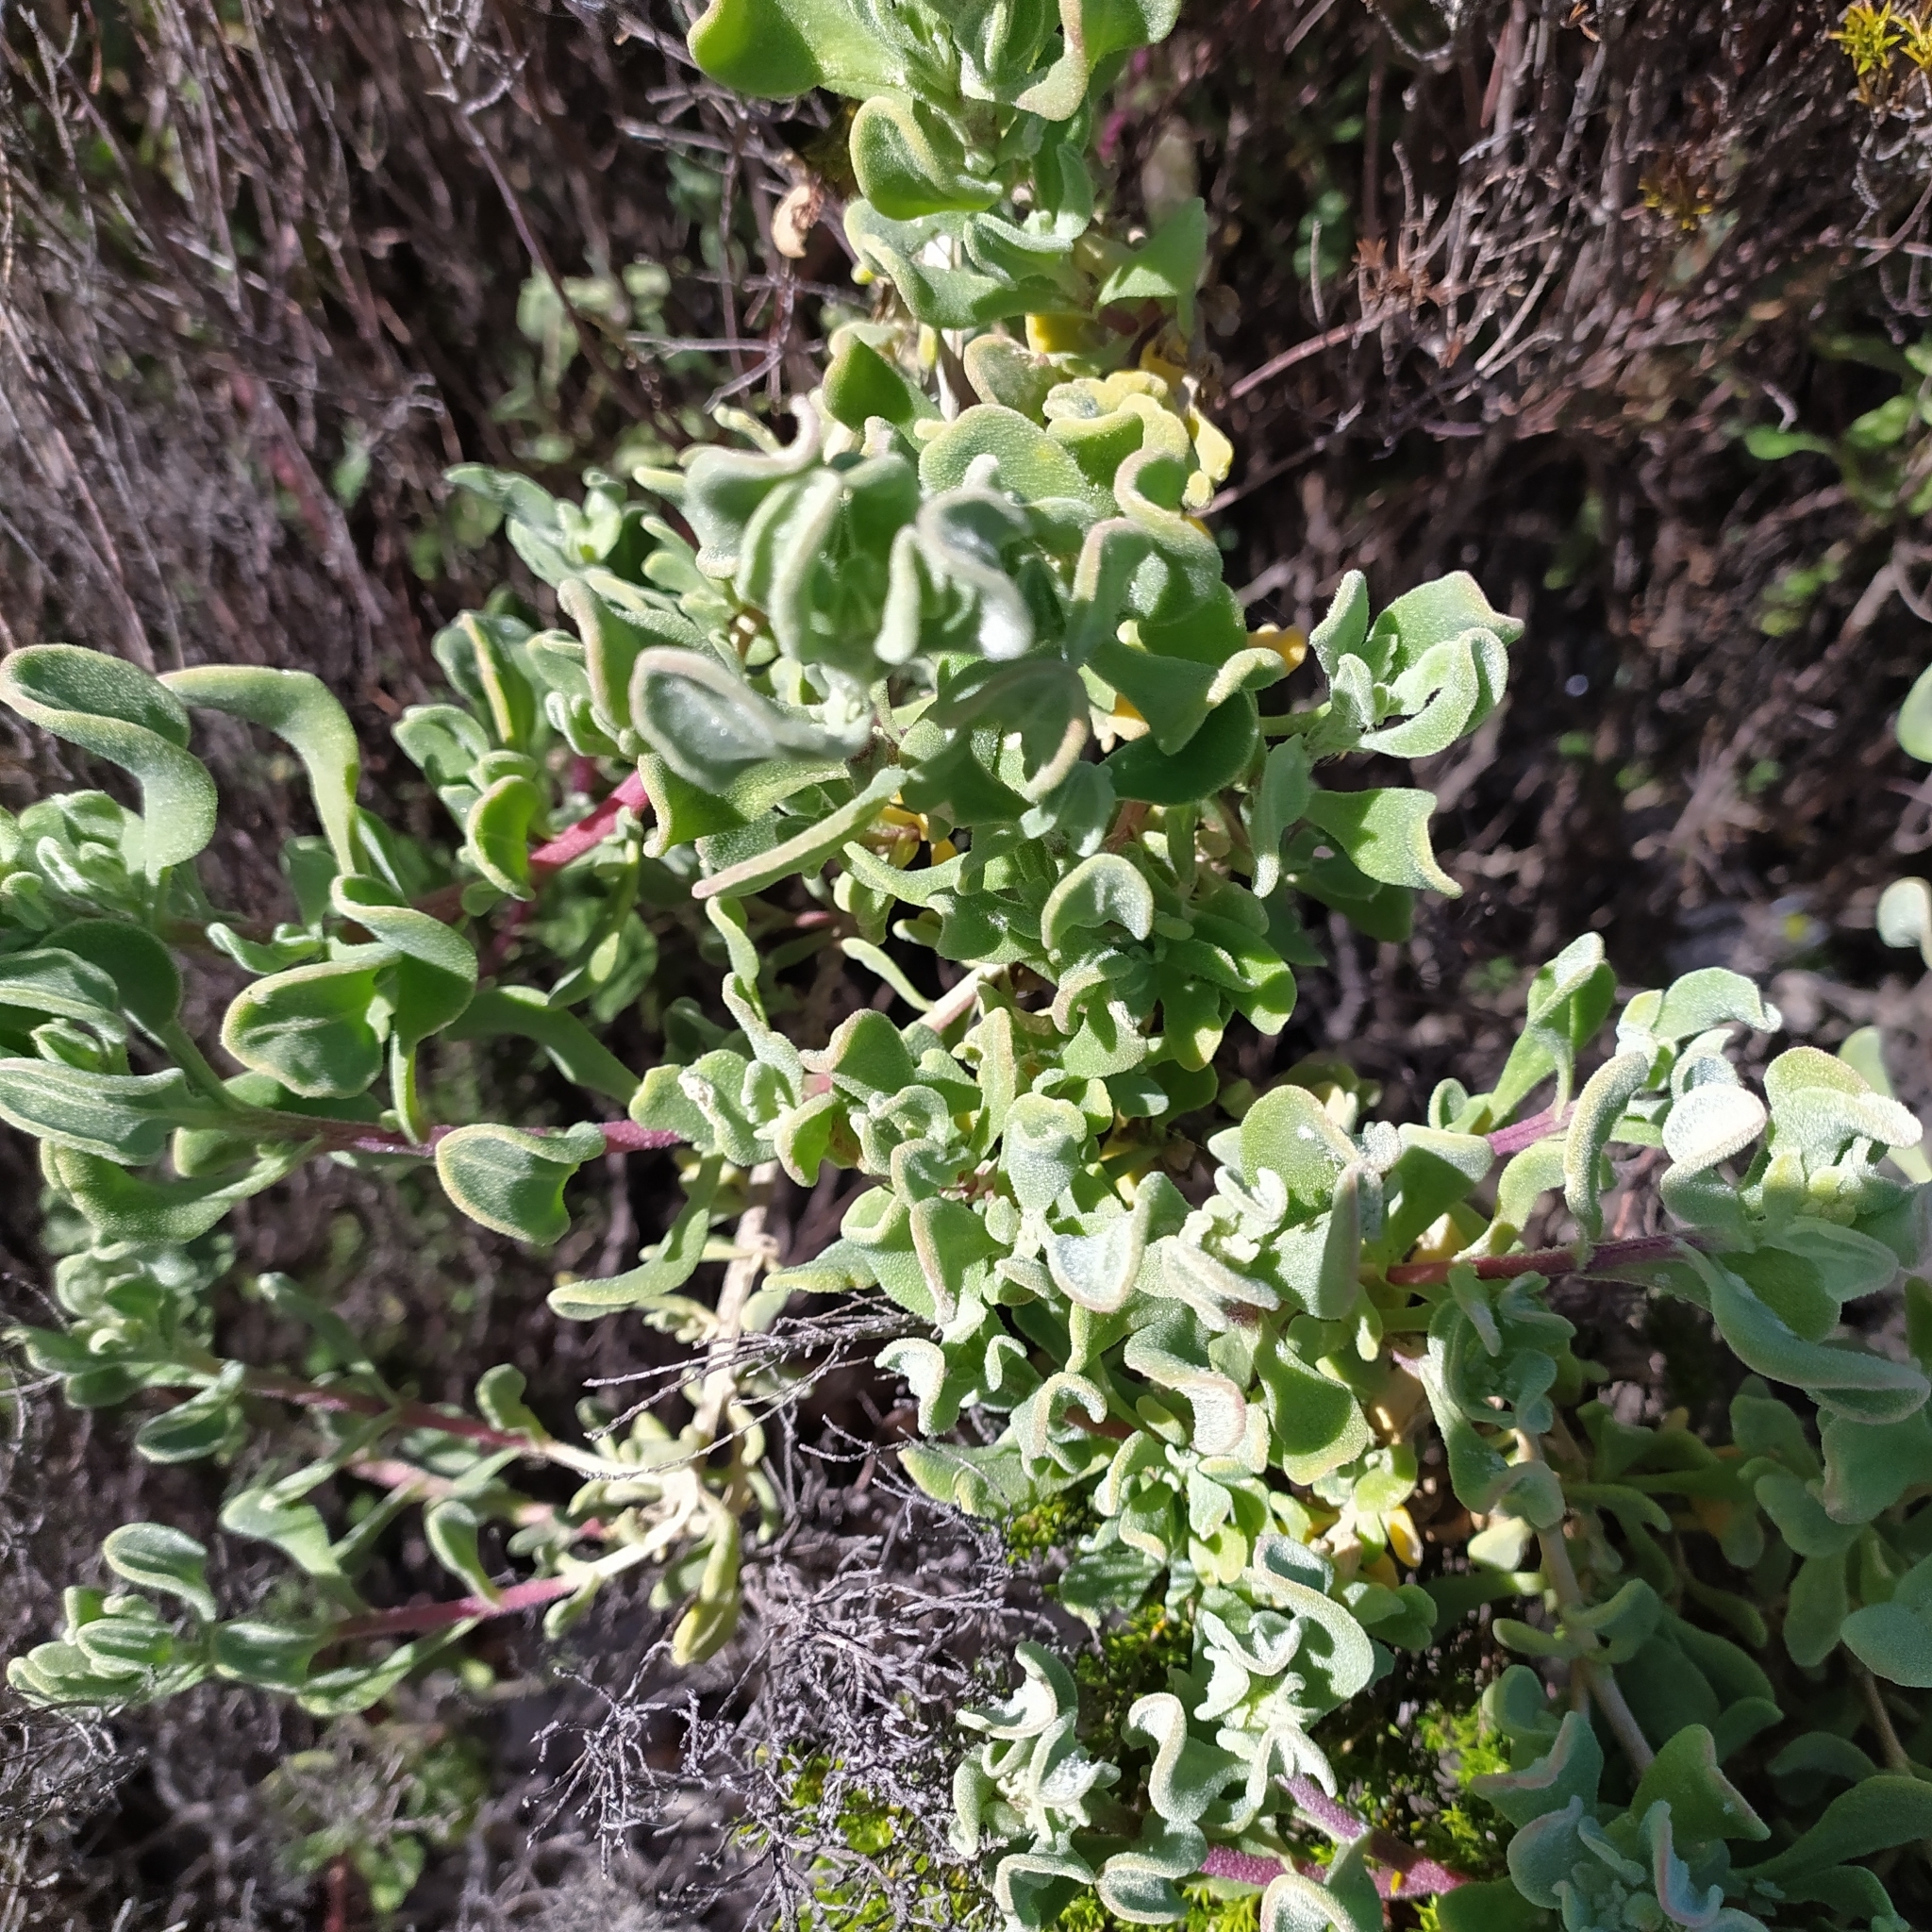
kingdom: Plantae
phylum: Tracheophyta
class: Magnoliopsida
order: Caryophyllales
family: Aizoaceae
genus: Tetragonia
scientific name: Tetragonia decumbens
